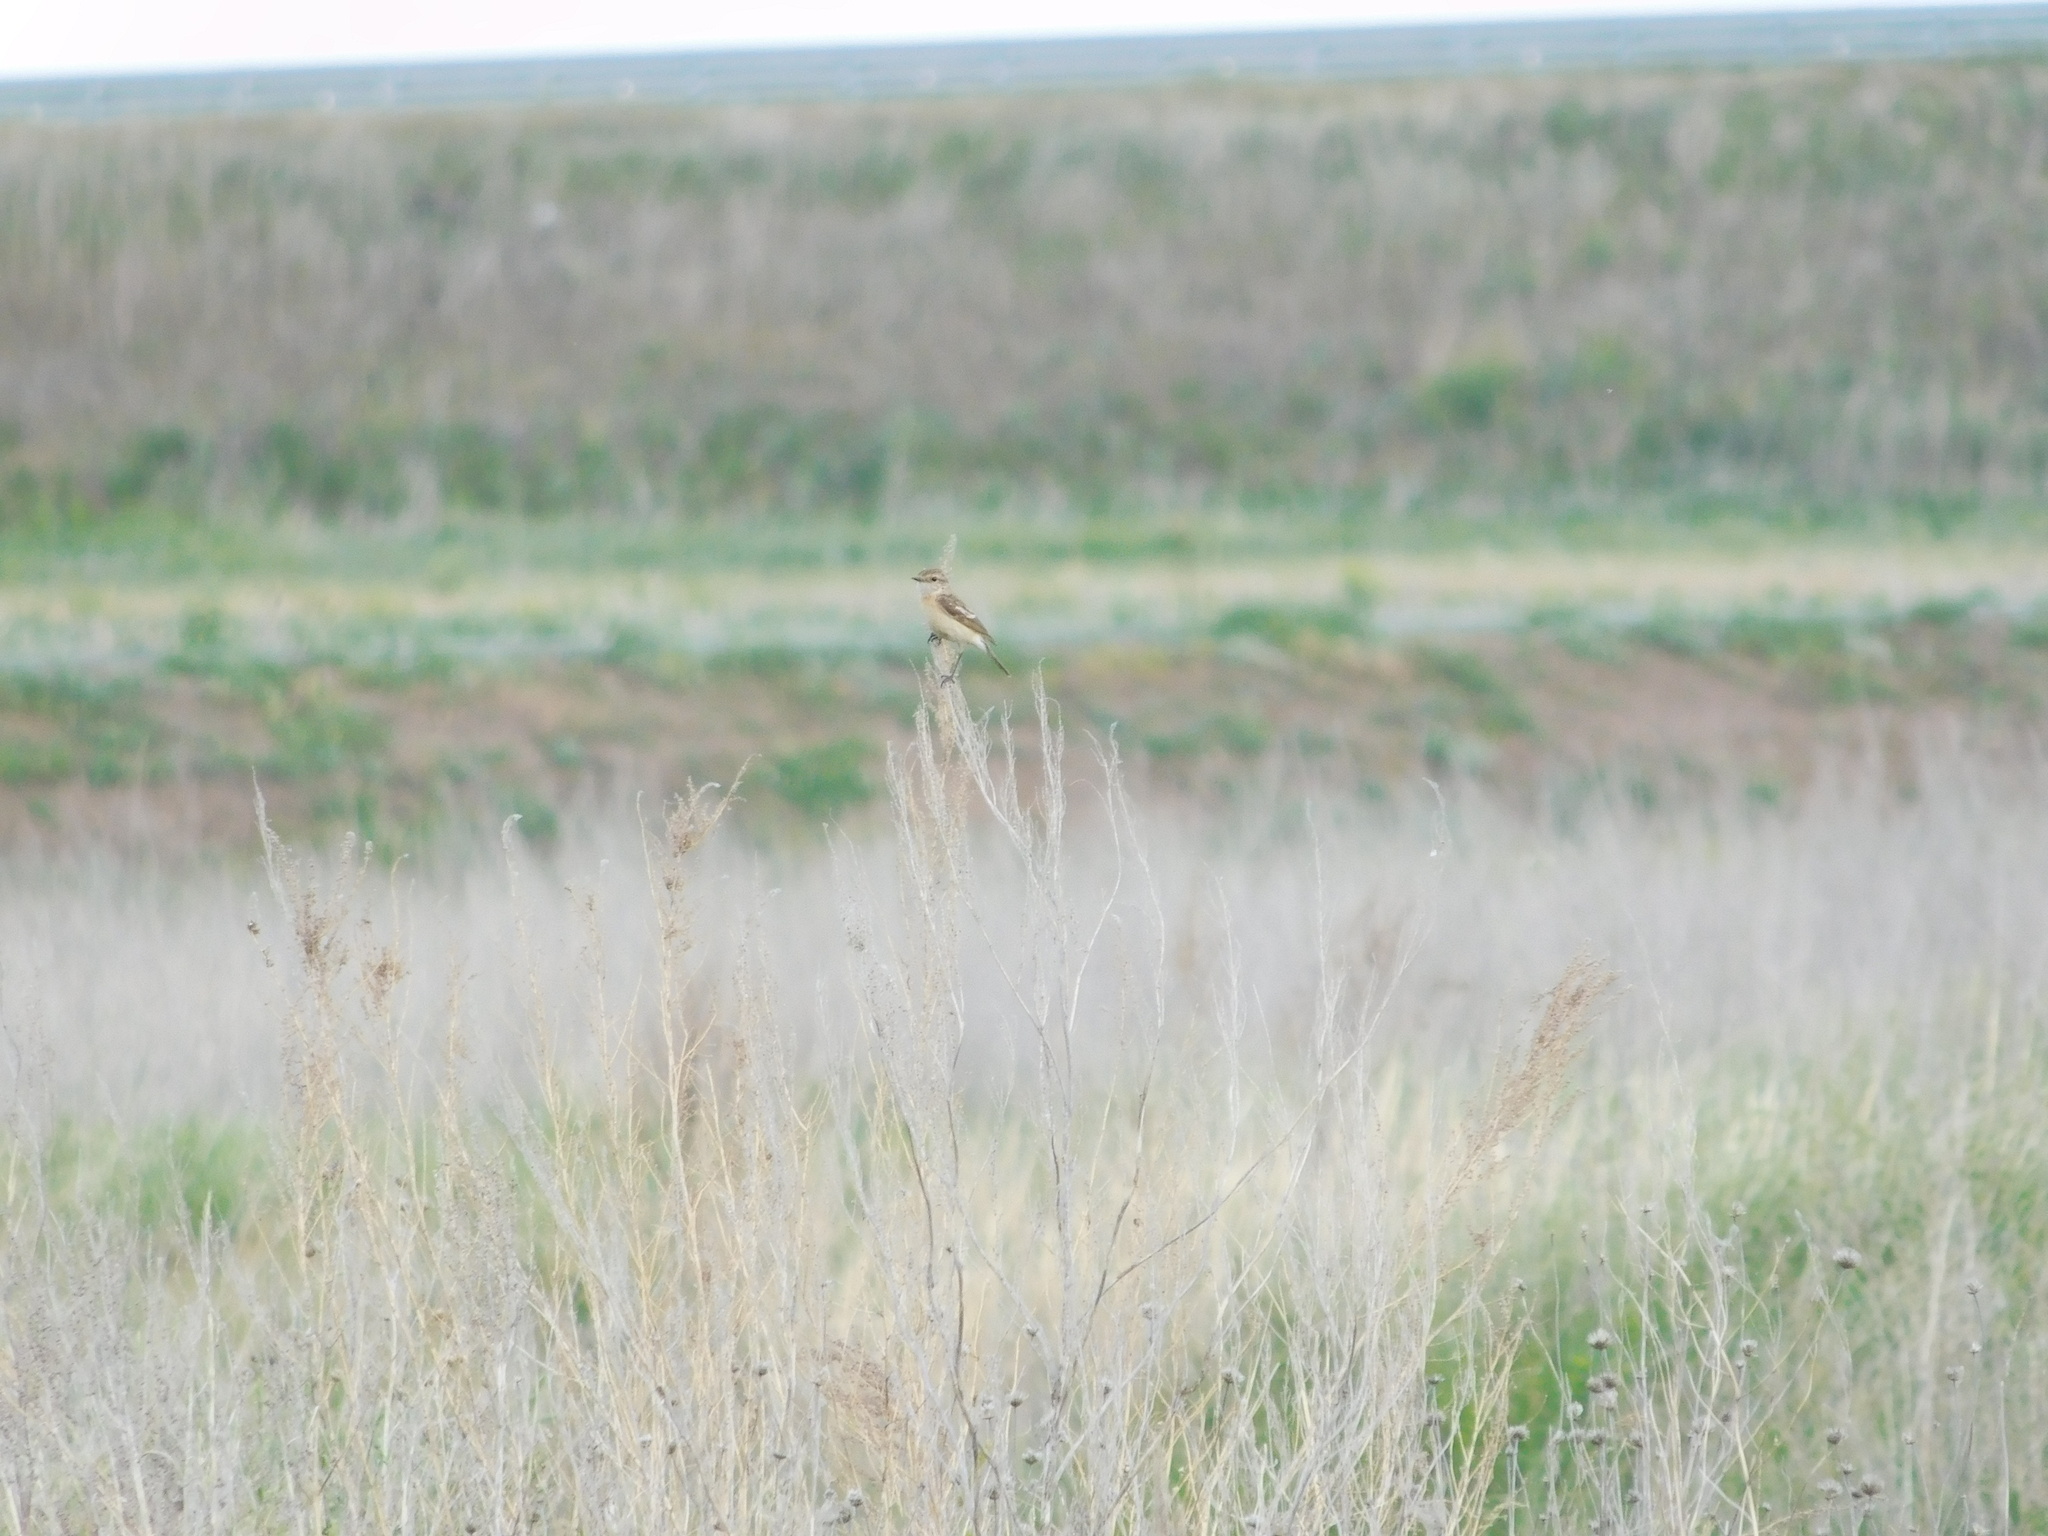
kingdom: Animalia
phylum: Chordata
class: Aves
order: Passeriformes
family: Muscicapidae
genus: Saxicola
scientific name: Saxicola maurus
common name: Siberian stonechat
